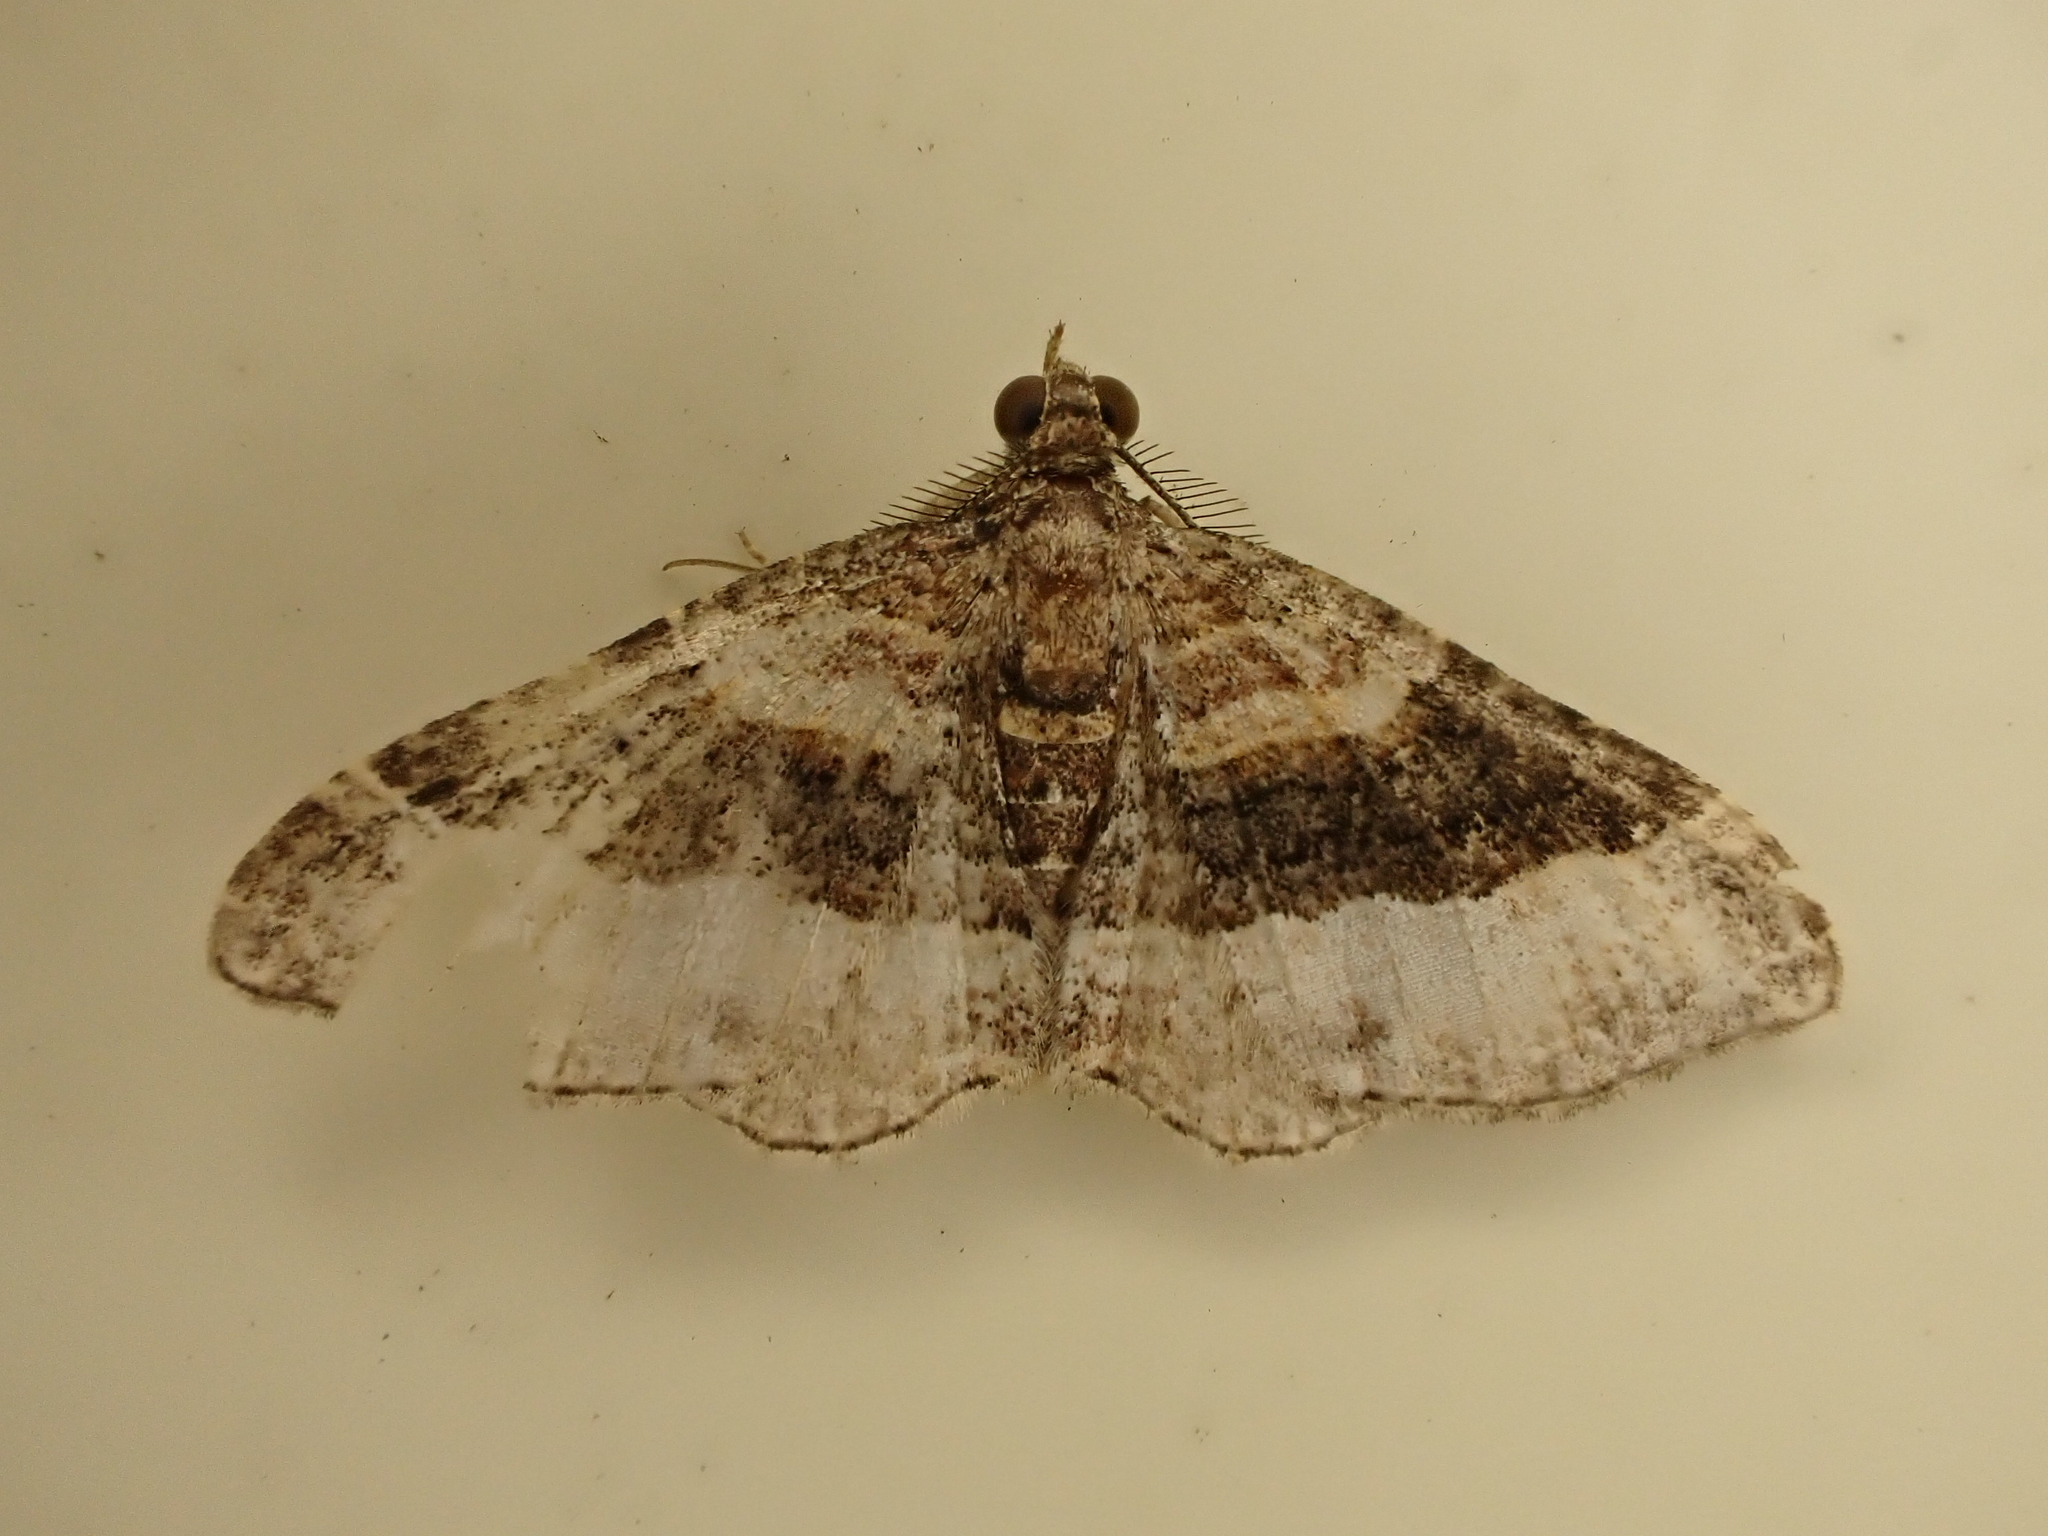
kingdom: Animalia
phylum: Arthropoda
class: Insecta
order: Lepidoptera
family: Geometridae
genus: Epyaxa
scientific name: Epyaxa lucidata
